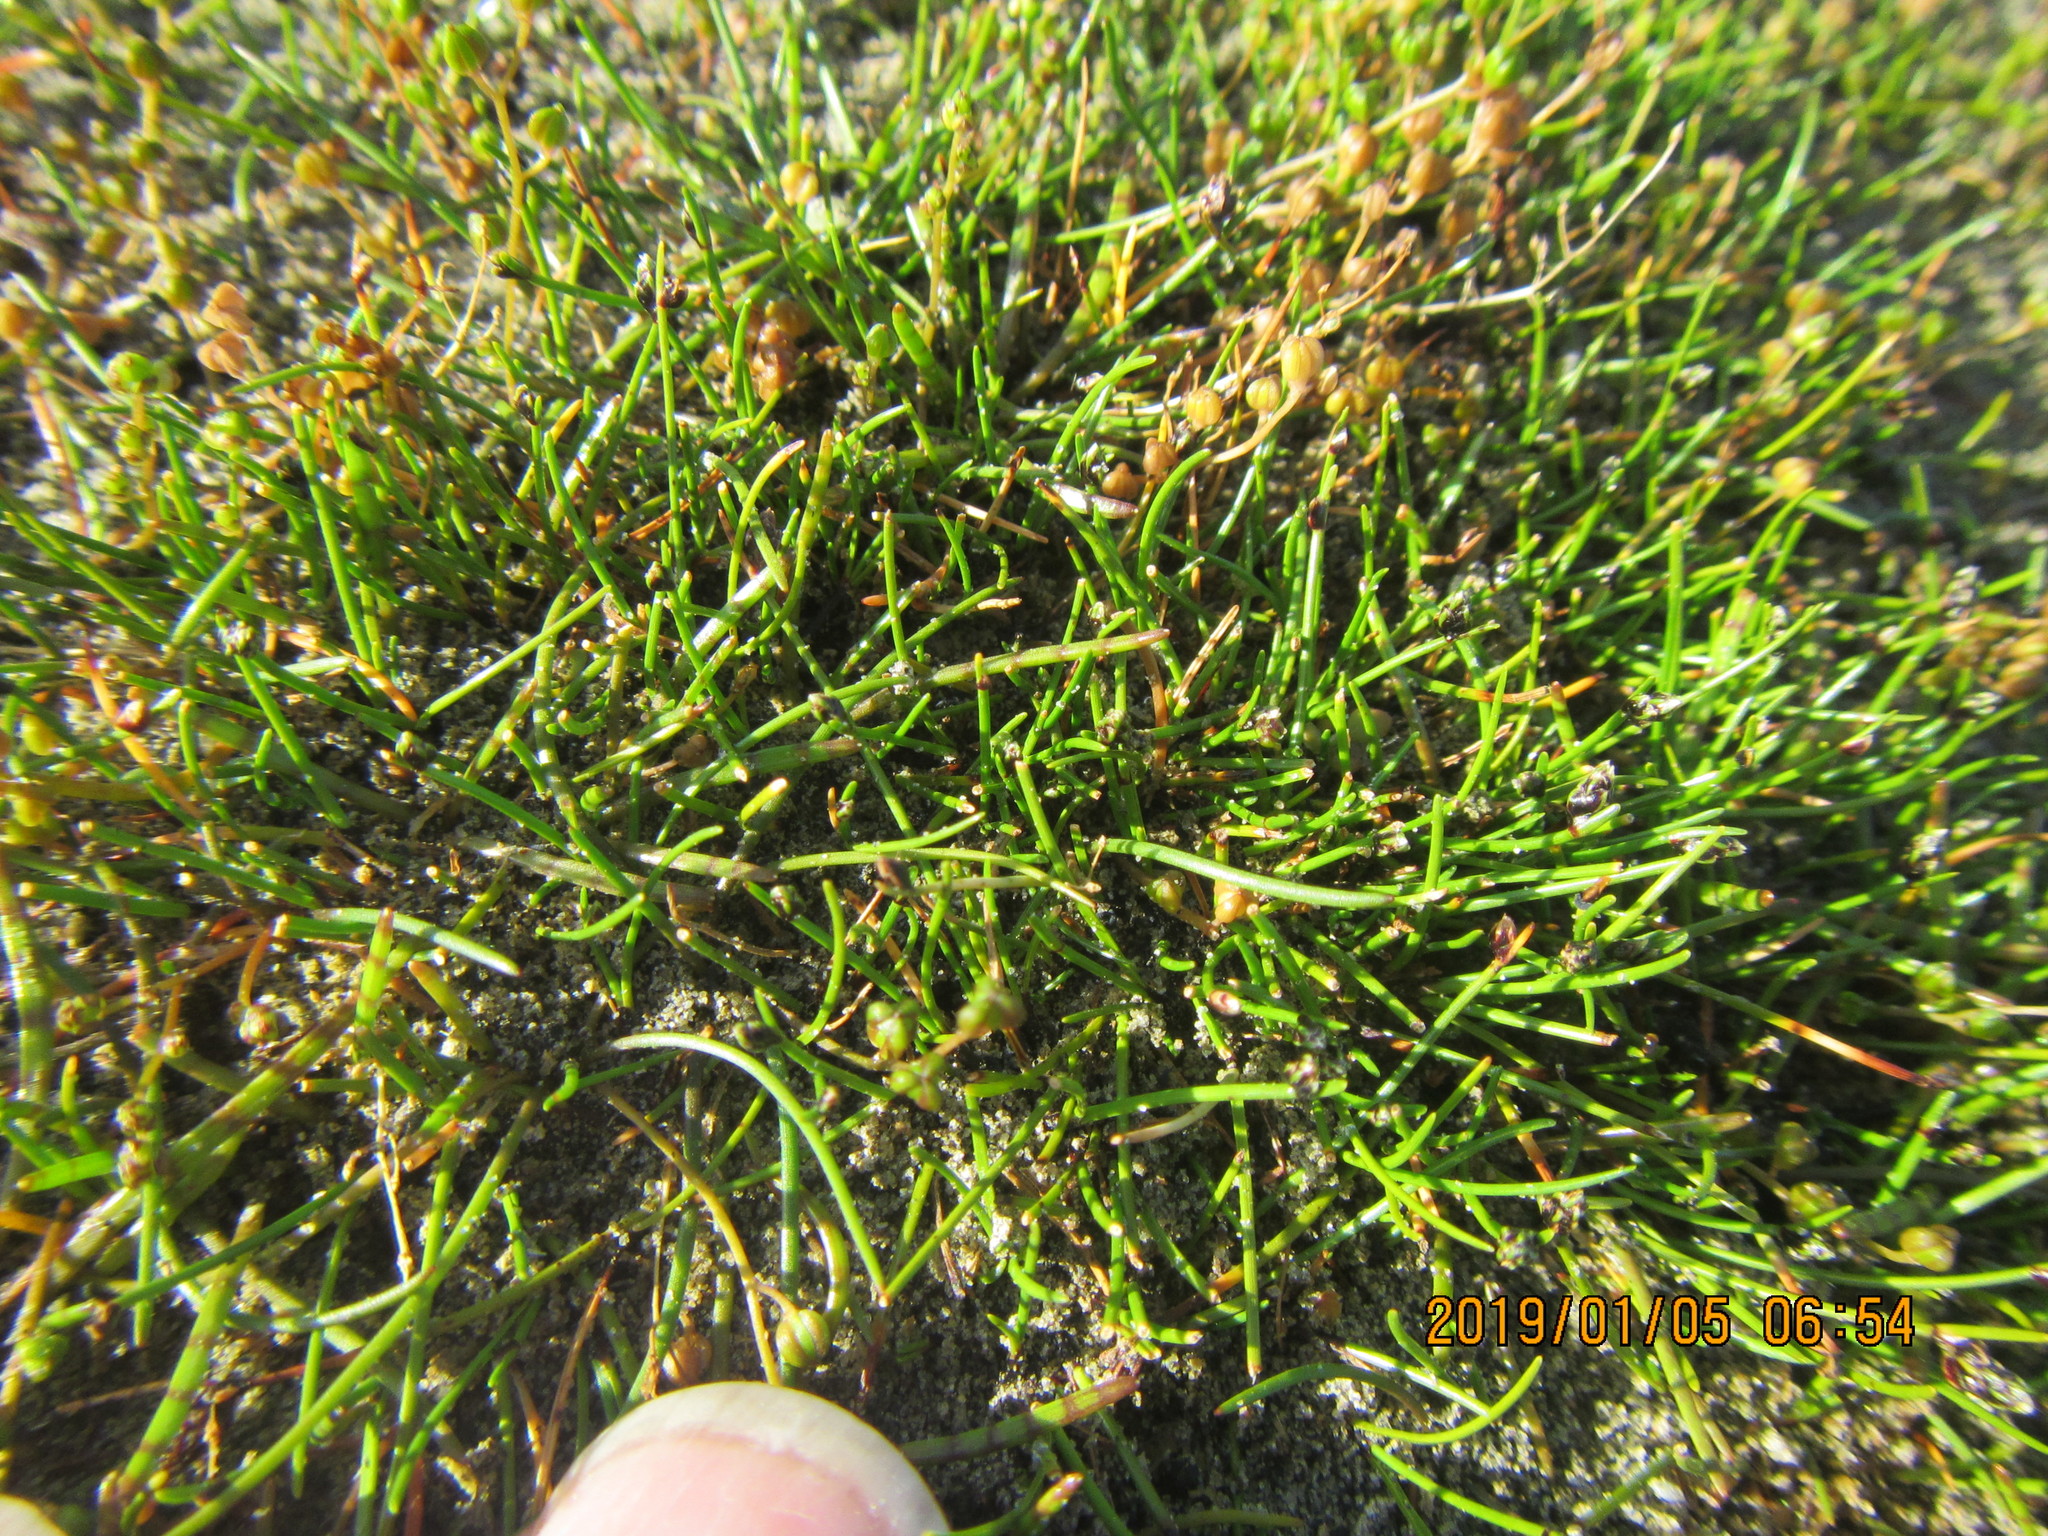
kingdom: Plantae
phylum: Tracheophyta
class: Magnoliopsida
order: Apiales
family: Apiaceae
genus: Lilaeopsis
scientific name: Lilaeopsis novae-zelandiae
